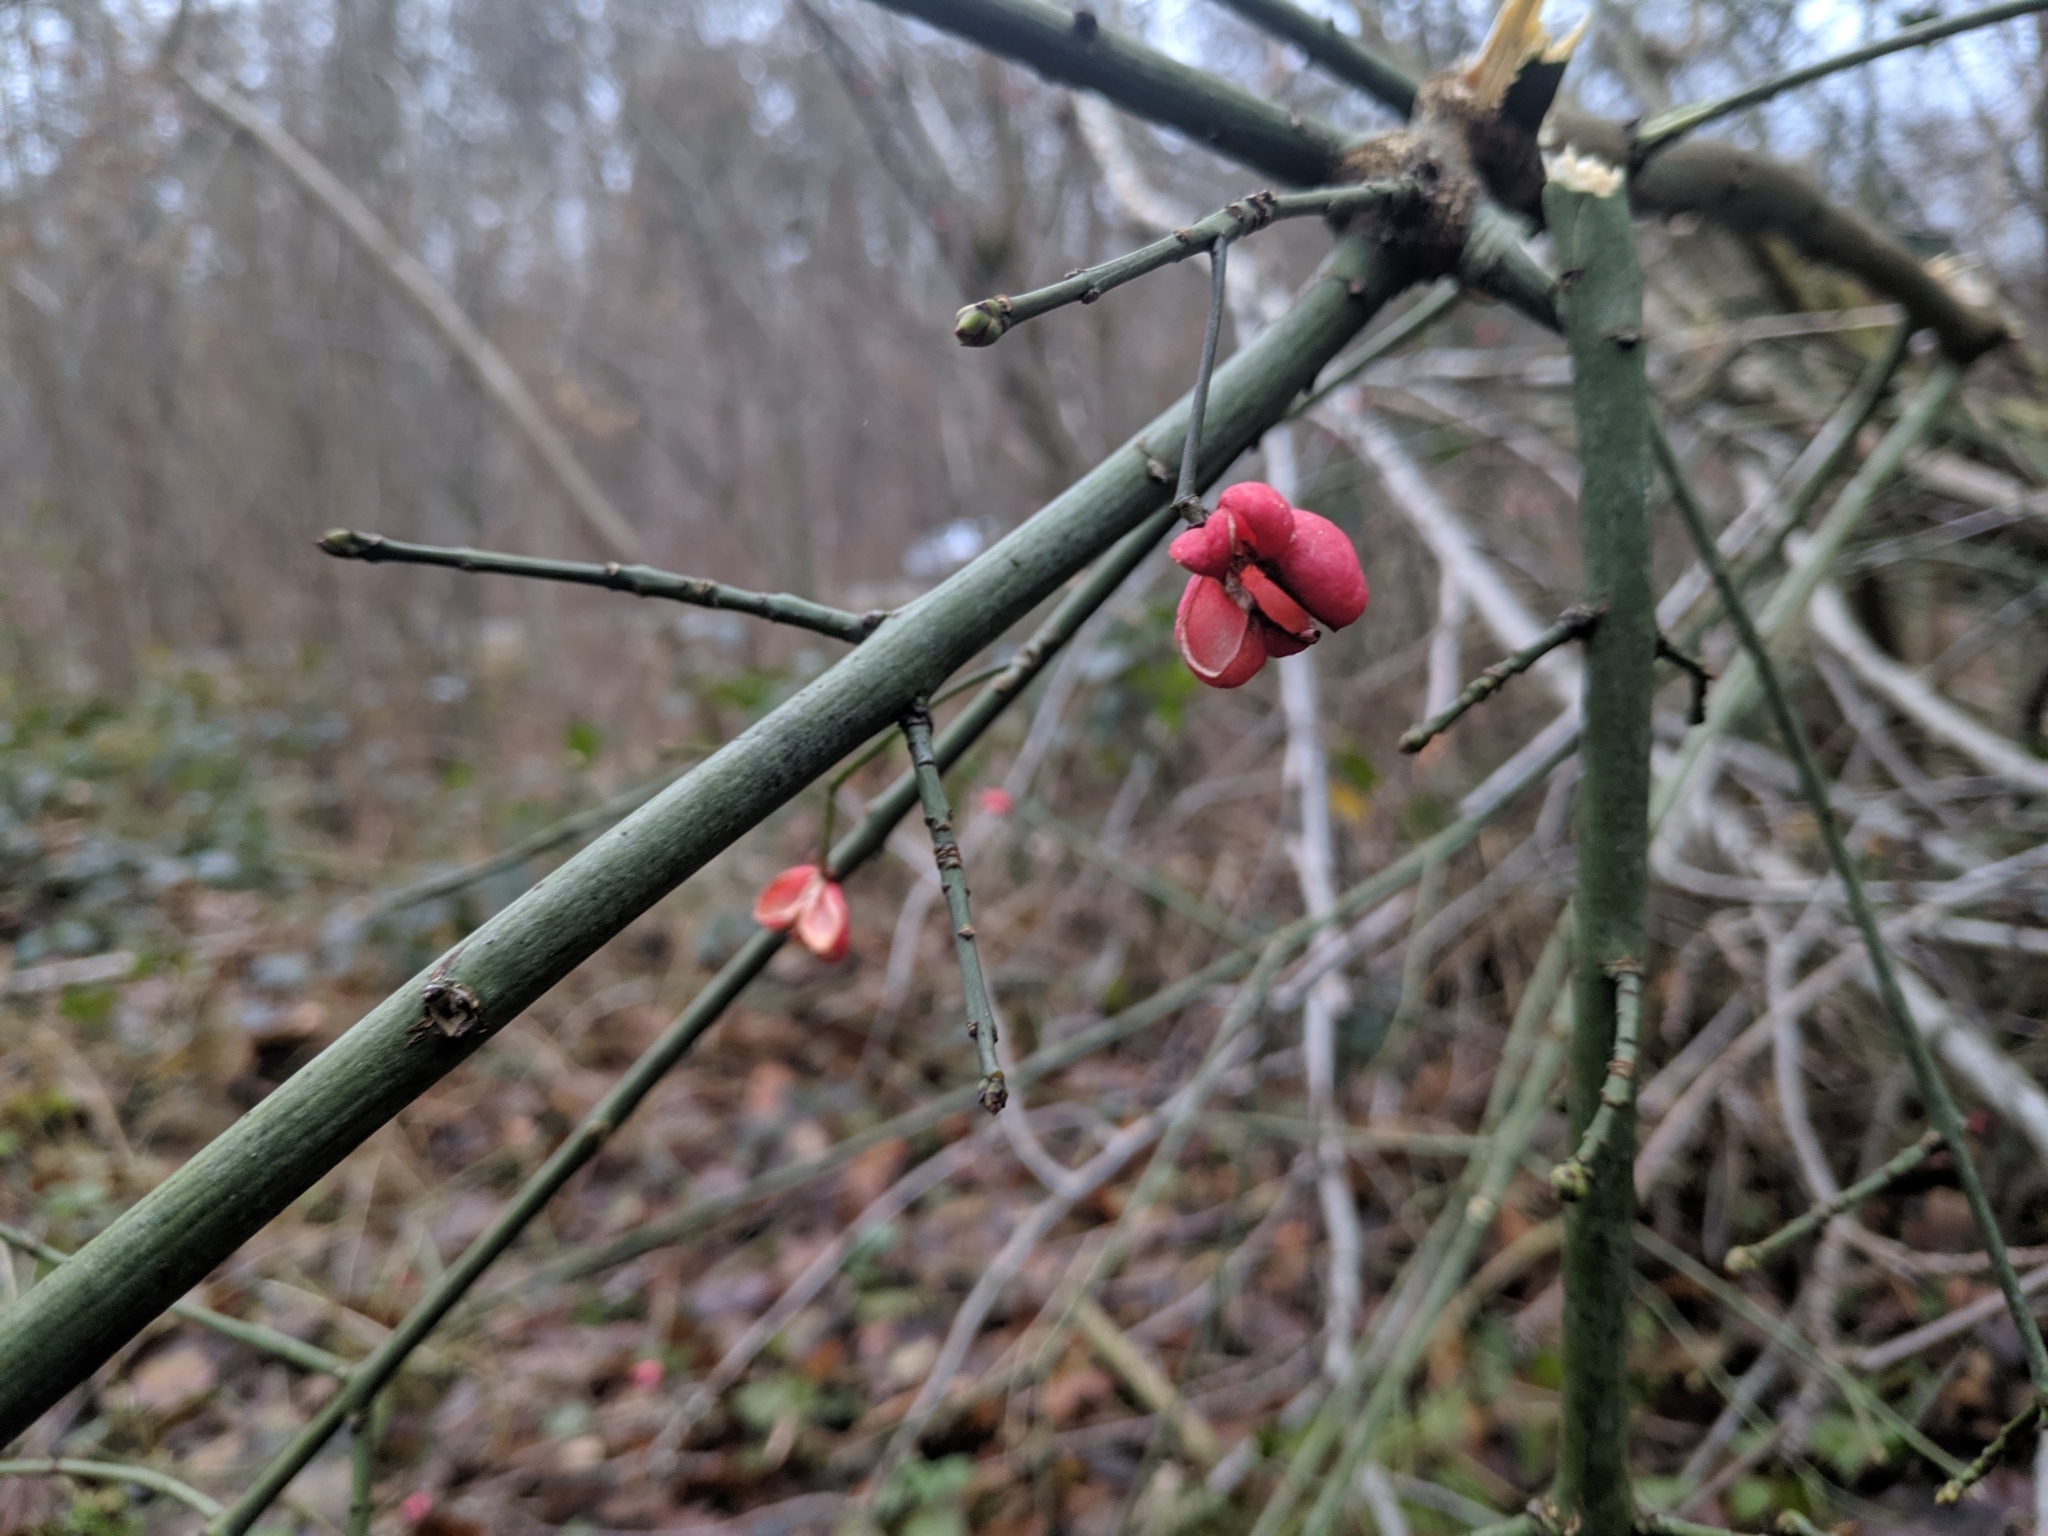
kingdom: Plantae
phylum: Tracheophyta
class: Magnoliopsida
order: Celastrales
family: Celastraceae
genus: Euonymus
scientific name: Euonymus europaeus
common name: Spindle
